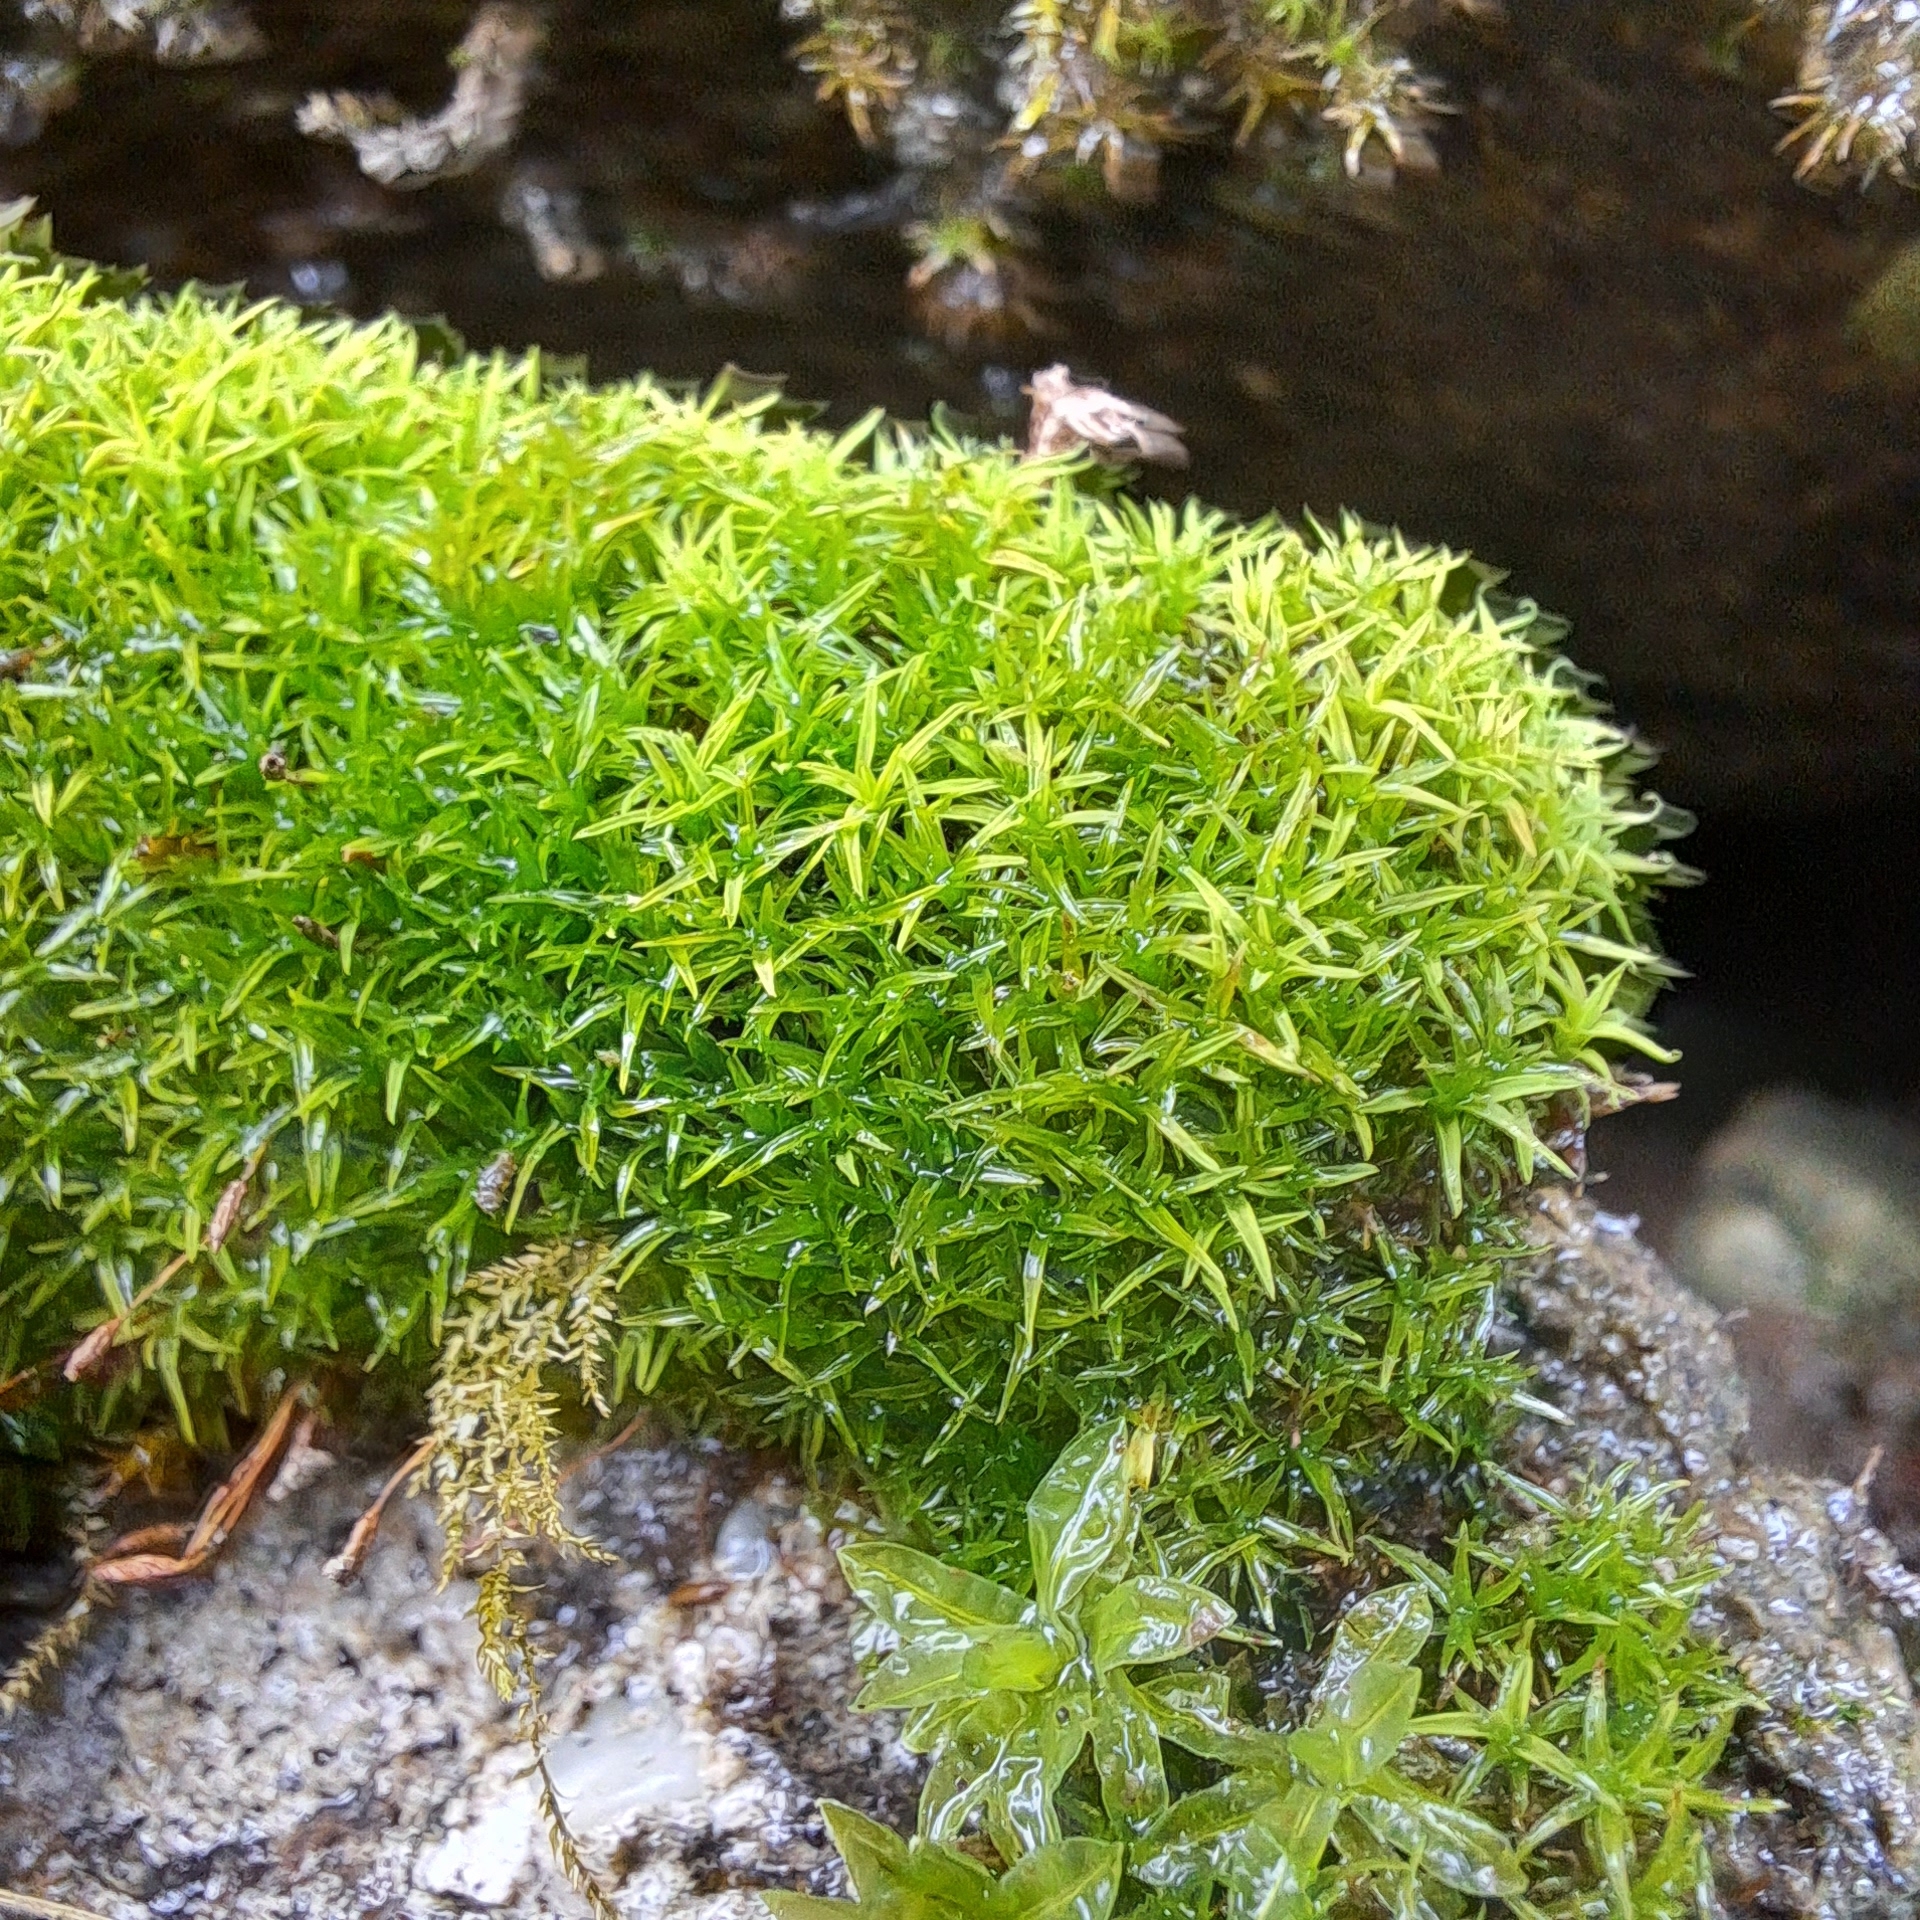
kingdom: Plantae
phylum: Bryophyta
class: Bryopsida
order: Pottiales
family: Pottiaceae
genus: Bryoerythrophyllum
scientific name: Bryoerythrophyllum recurvirostrum
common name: Red beard moss
